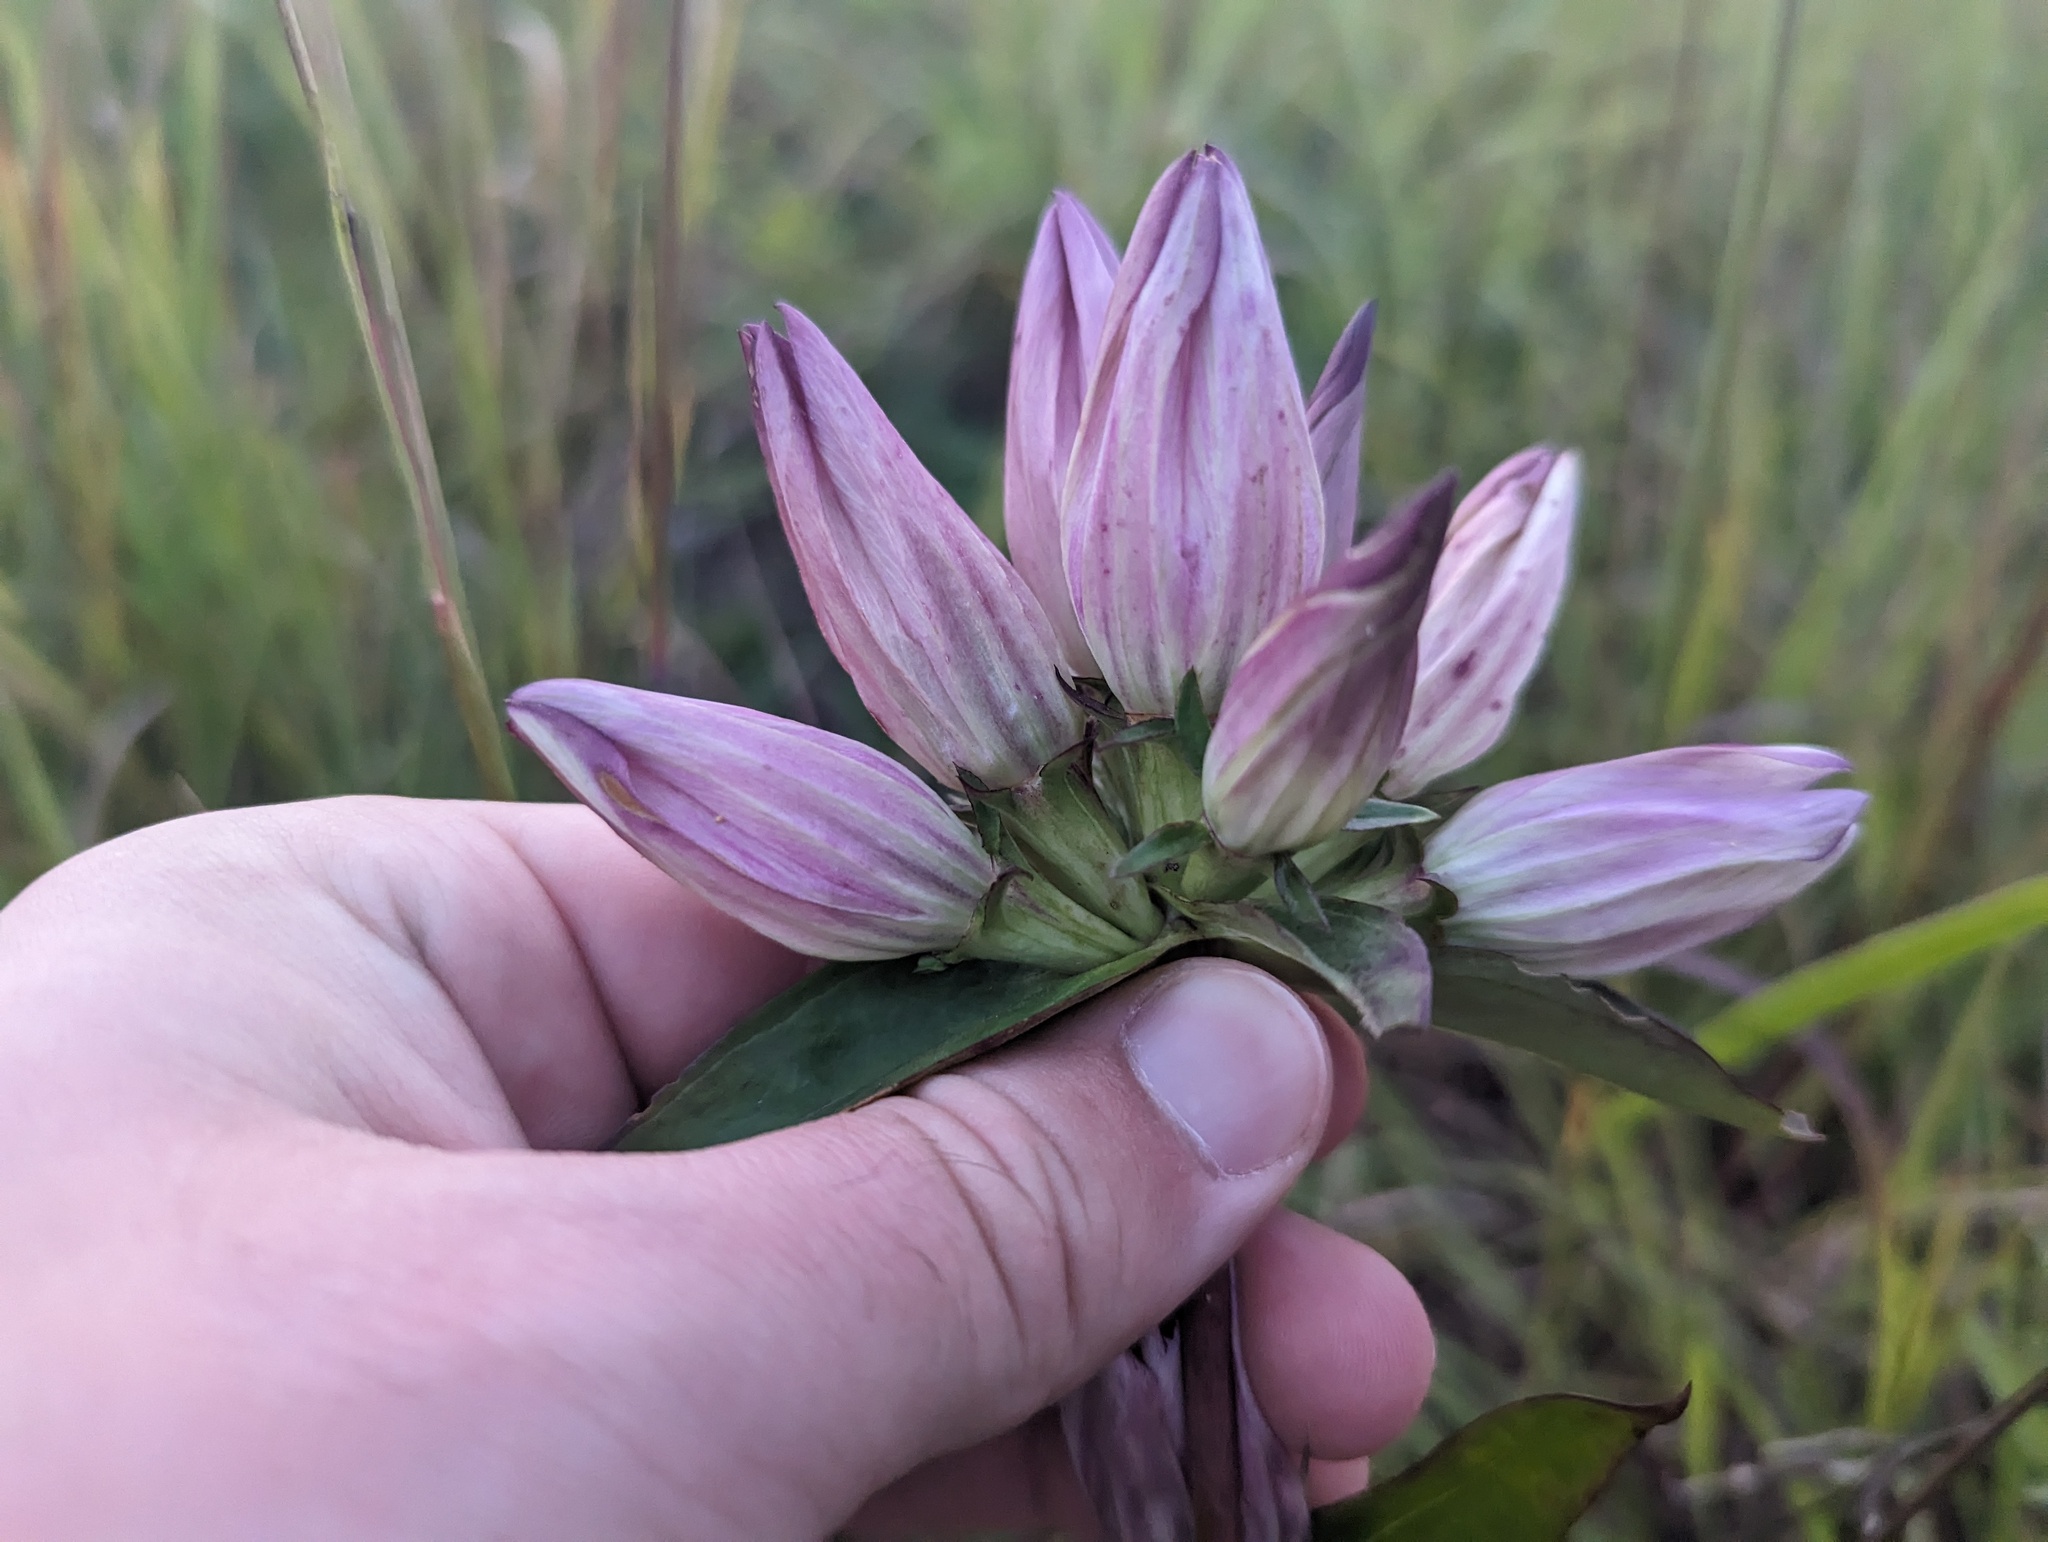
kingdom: Plantae
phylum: Tracheophyta
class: Magnoliopsida
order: Gentianales
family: Gentianaceae
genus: Gentiana
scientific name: Gentiana curtisii
